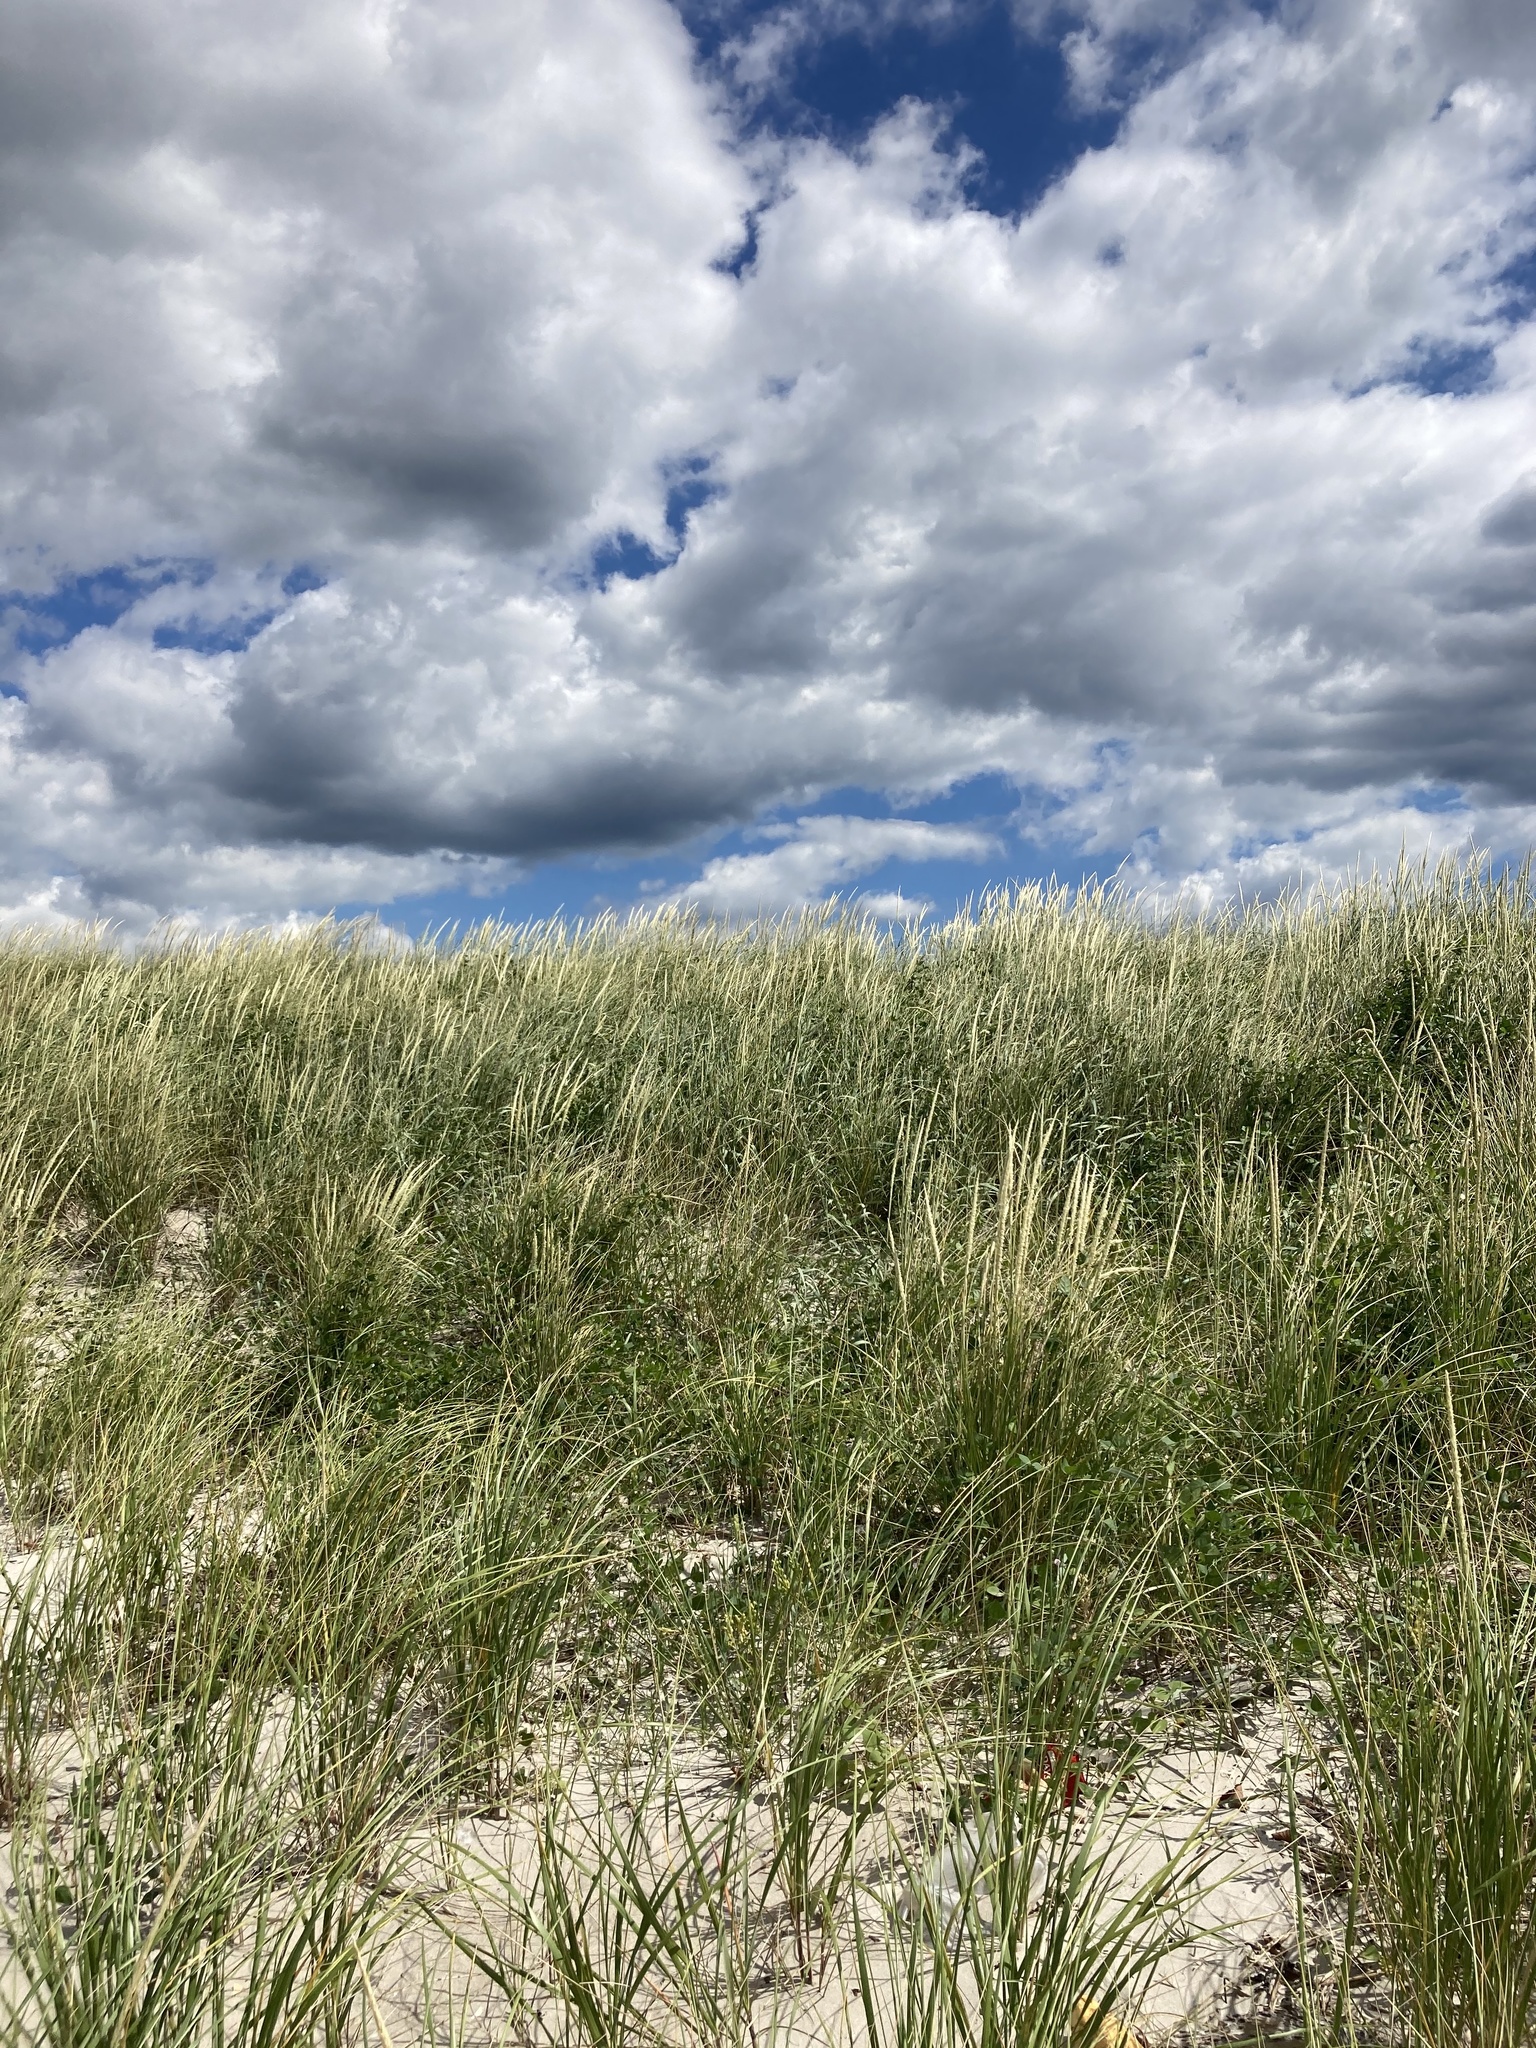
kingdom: Plantae
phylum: Tracheophyta
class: Liliopsida
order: Poales
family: Poaceae
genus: Calamagrostis
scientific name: Calamagrostis breviligulata
